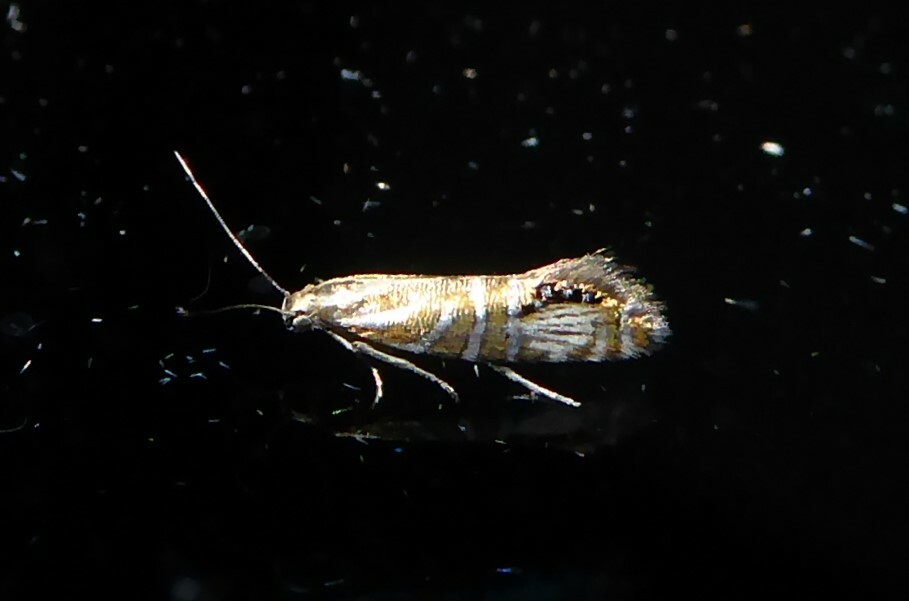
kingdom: Animalia
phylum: Arthropoda
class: Insecta
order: Lepidoptera
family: Glyphipterigidae
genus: Glyphipterix
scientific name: Glyphipterix triselena
